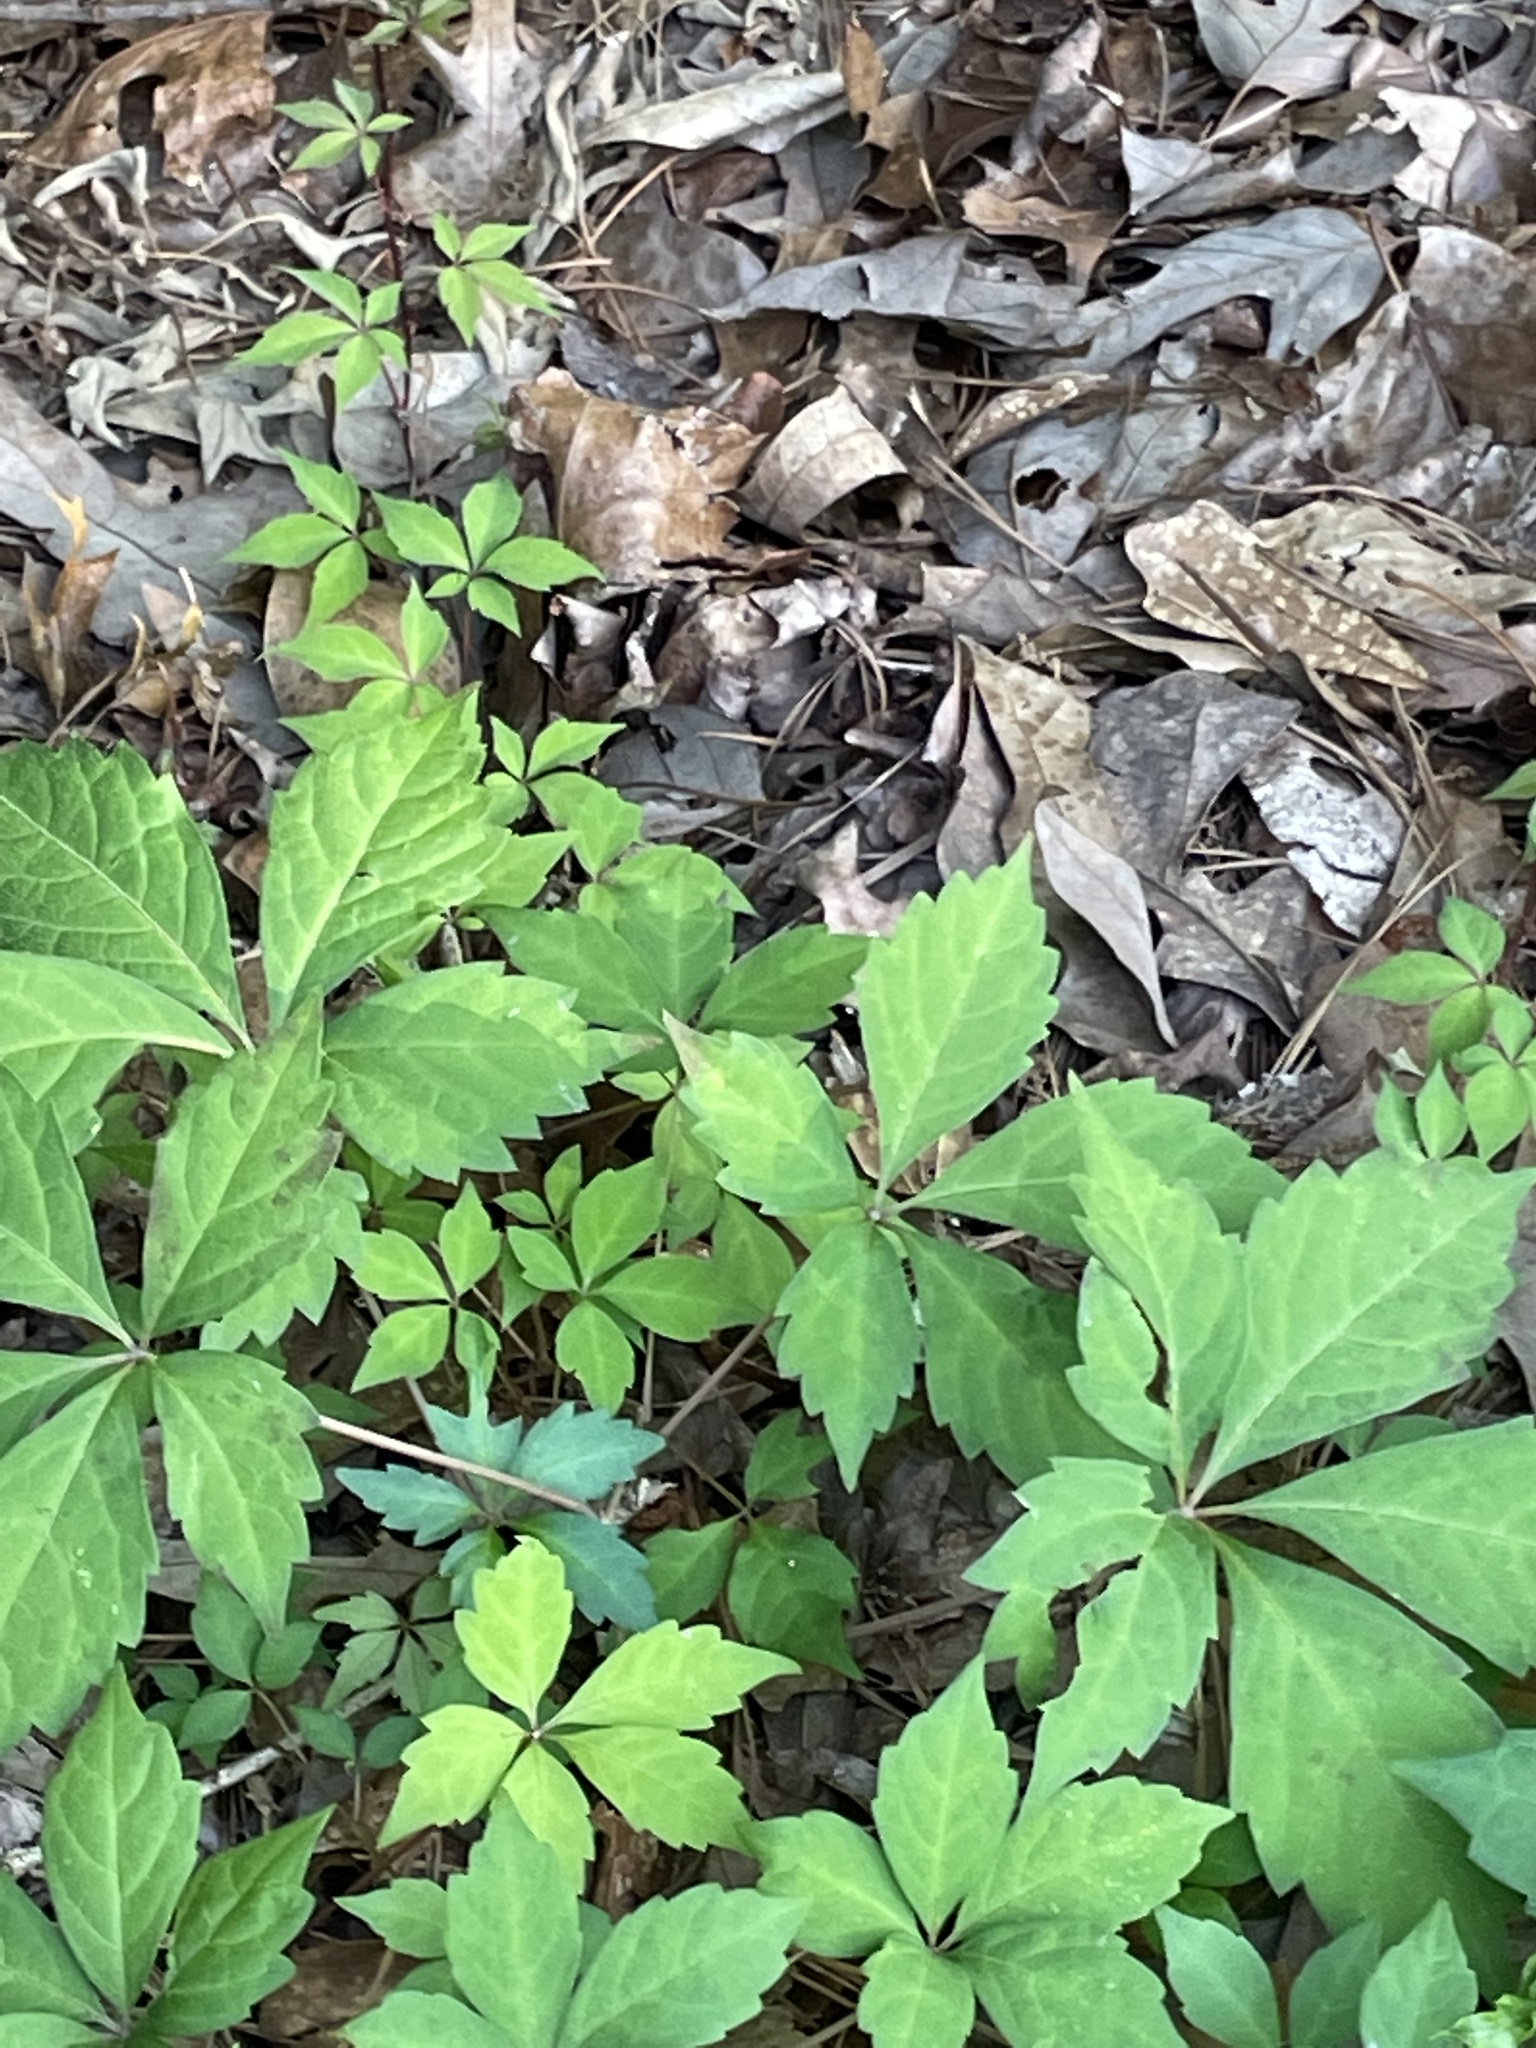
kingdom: Plantae
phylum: Tracheophyta
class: Magnoliopsida
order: Vitales
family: Vitaceae
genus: Parthenocissus
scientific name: Parthenocissus quinquefolia
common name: Virginia-creeper
